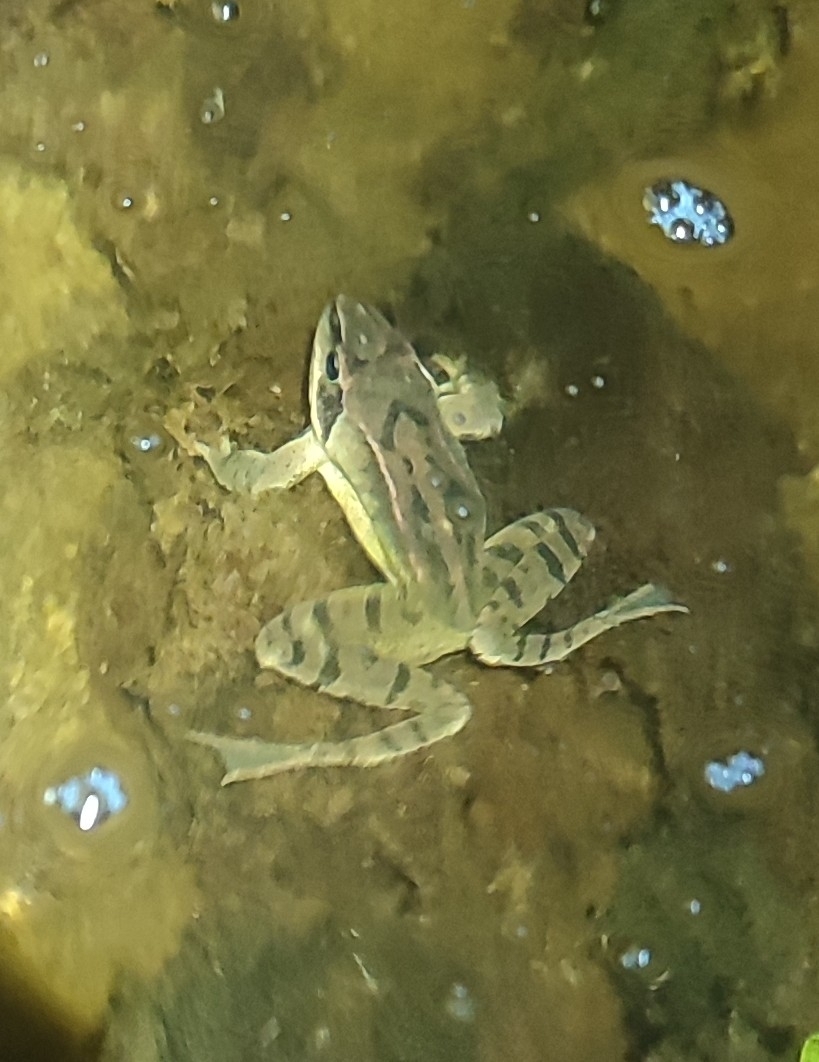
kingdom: Animalia
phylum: Chordata
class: Amphibia
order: Anura
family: Ranidae
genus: Rana
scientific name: Rana dalmatina
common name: Agile frog
